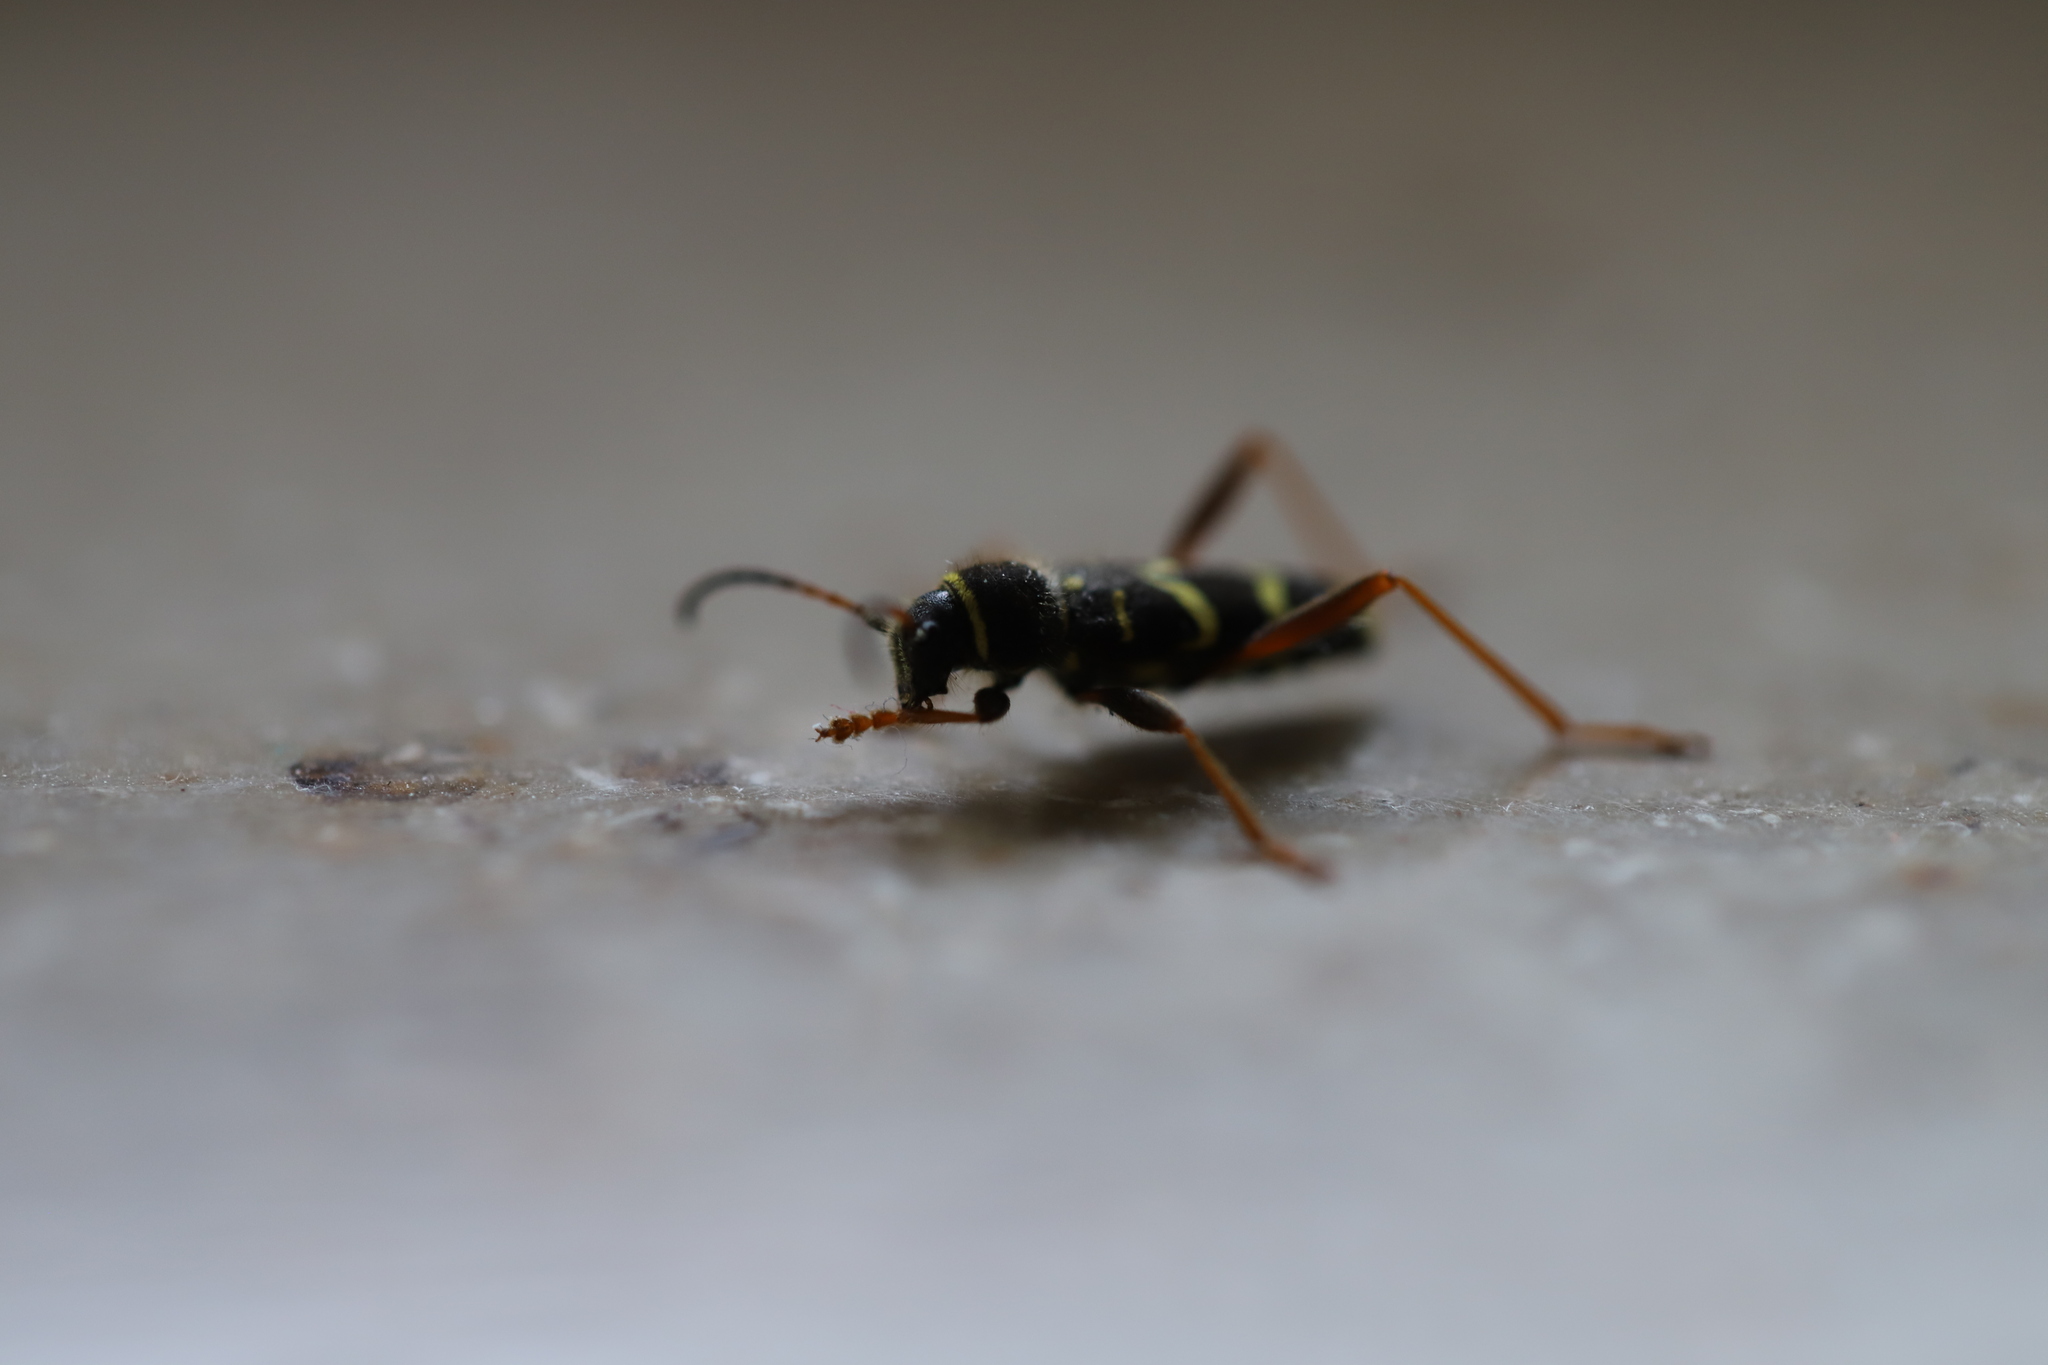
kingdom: Animalia
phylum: Arthropoda
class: Insecta
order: Coleoptera
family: Cerambycidae
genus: Clytus
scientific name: Clytus arietis
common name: Wasp beetle
